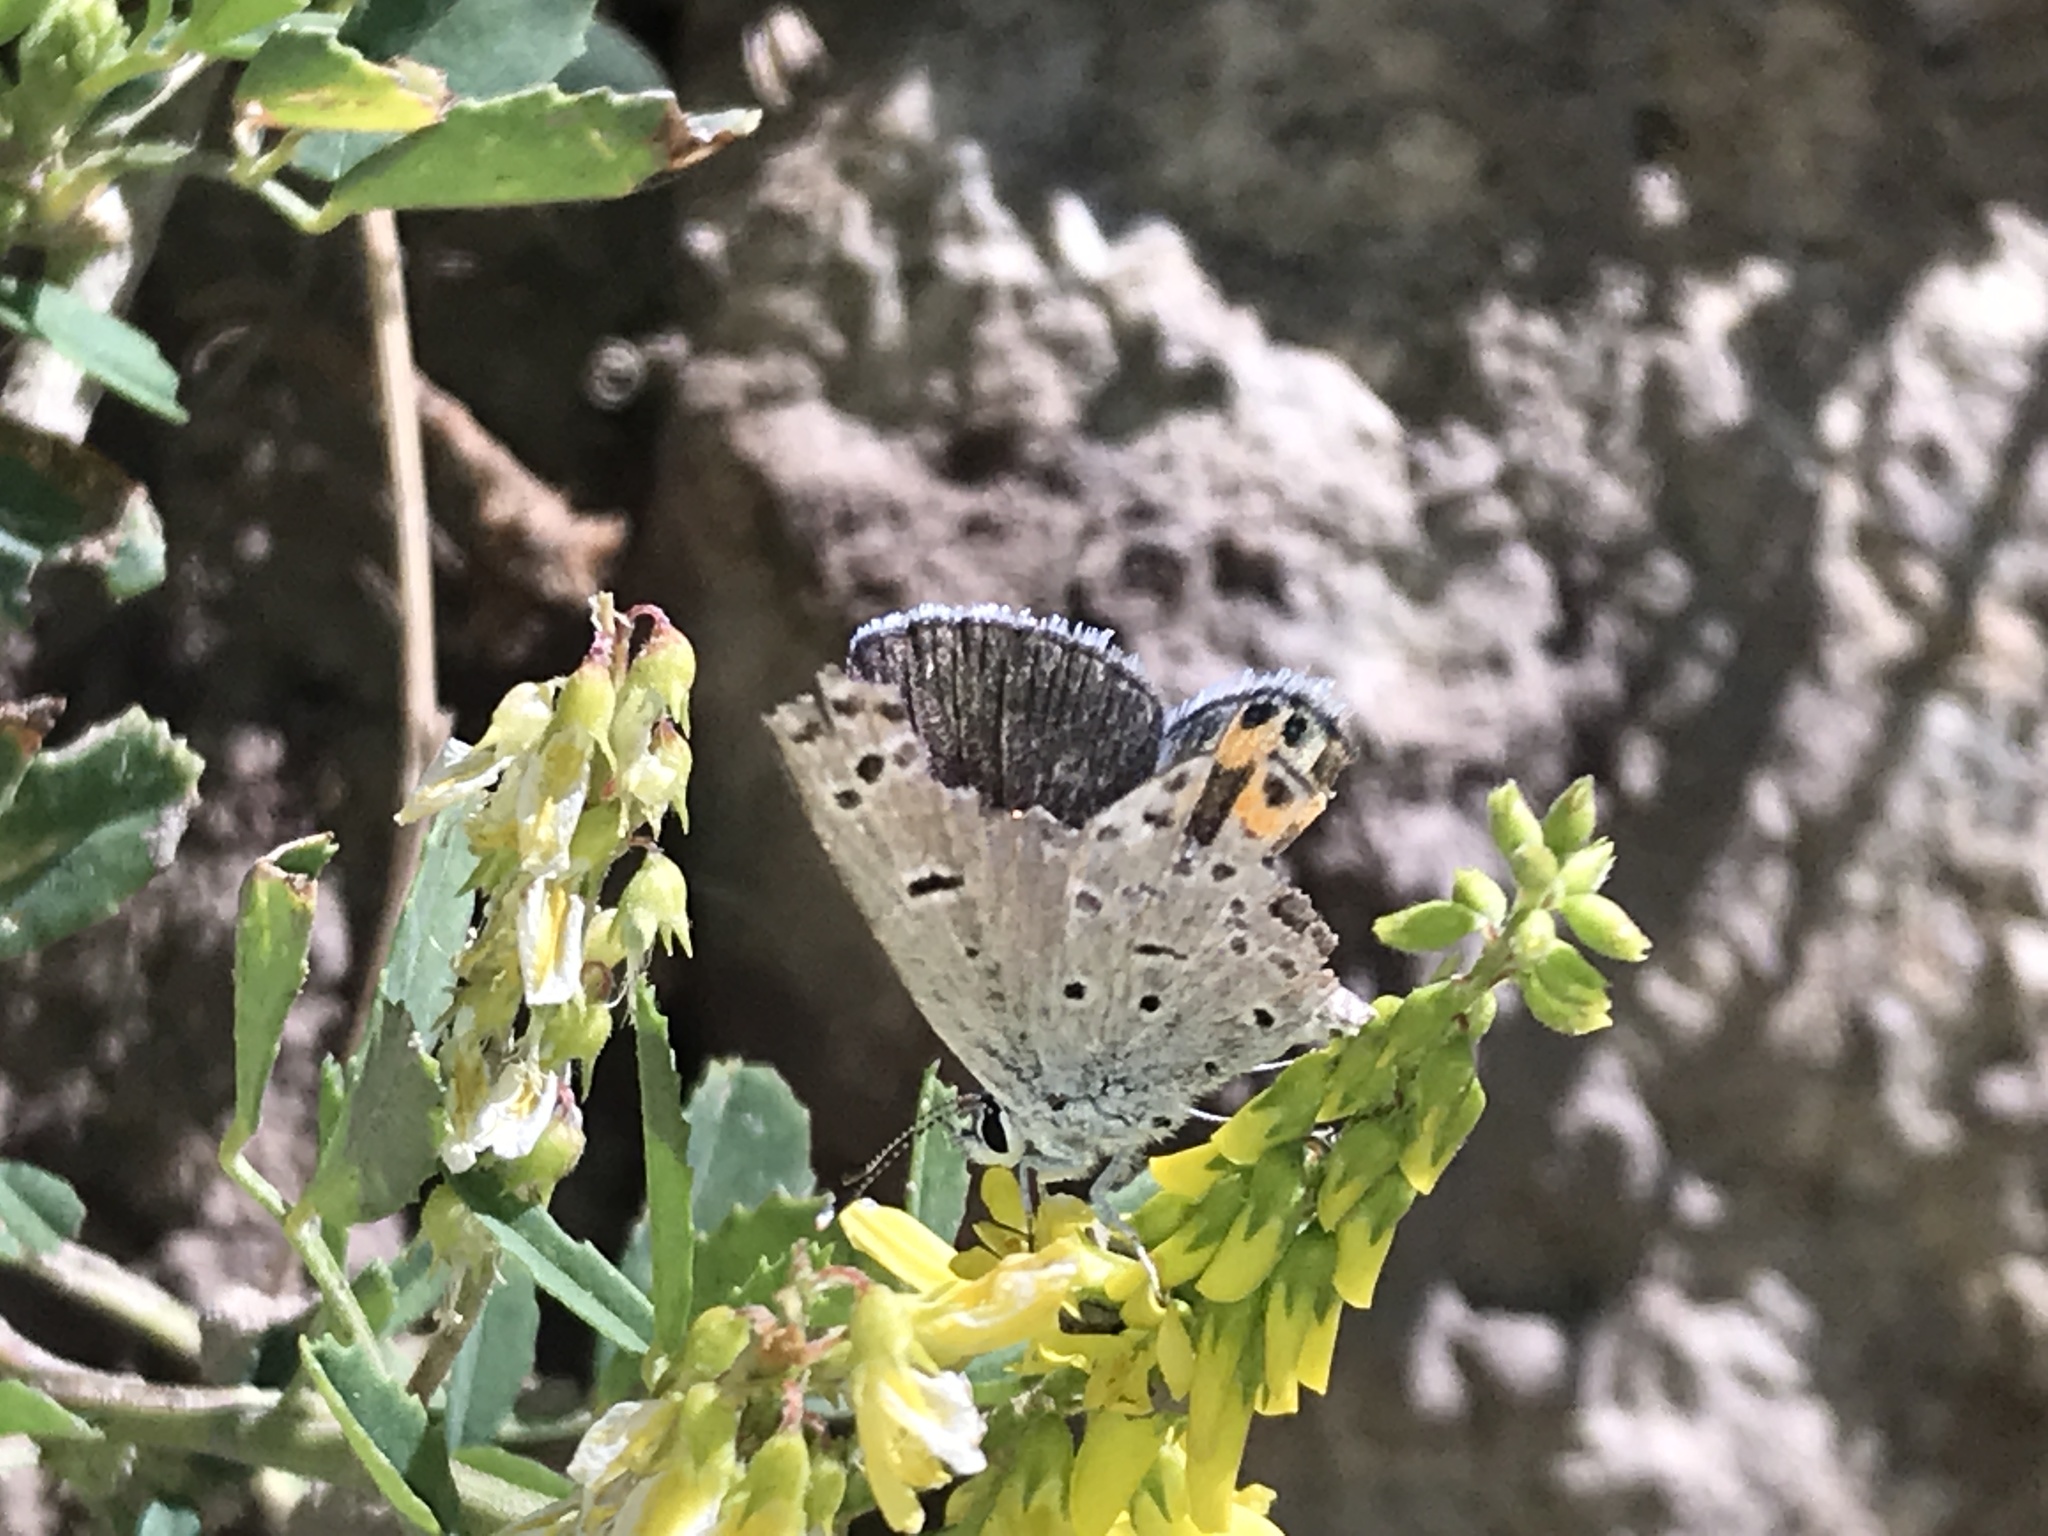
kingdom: Animalia
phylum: Arthropoda
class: Insecta
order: Lepidoptera
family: Lycaenidae
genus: Icaricia
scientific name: Icaricia lupini
